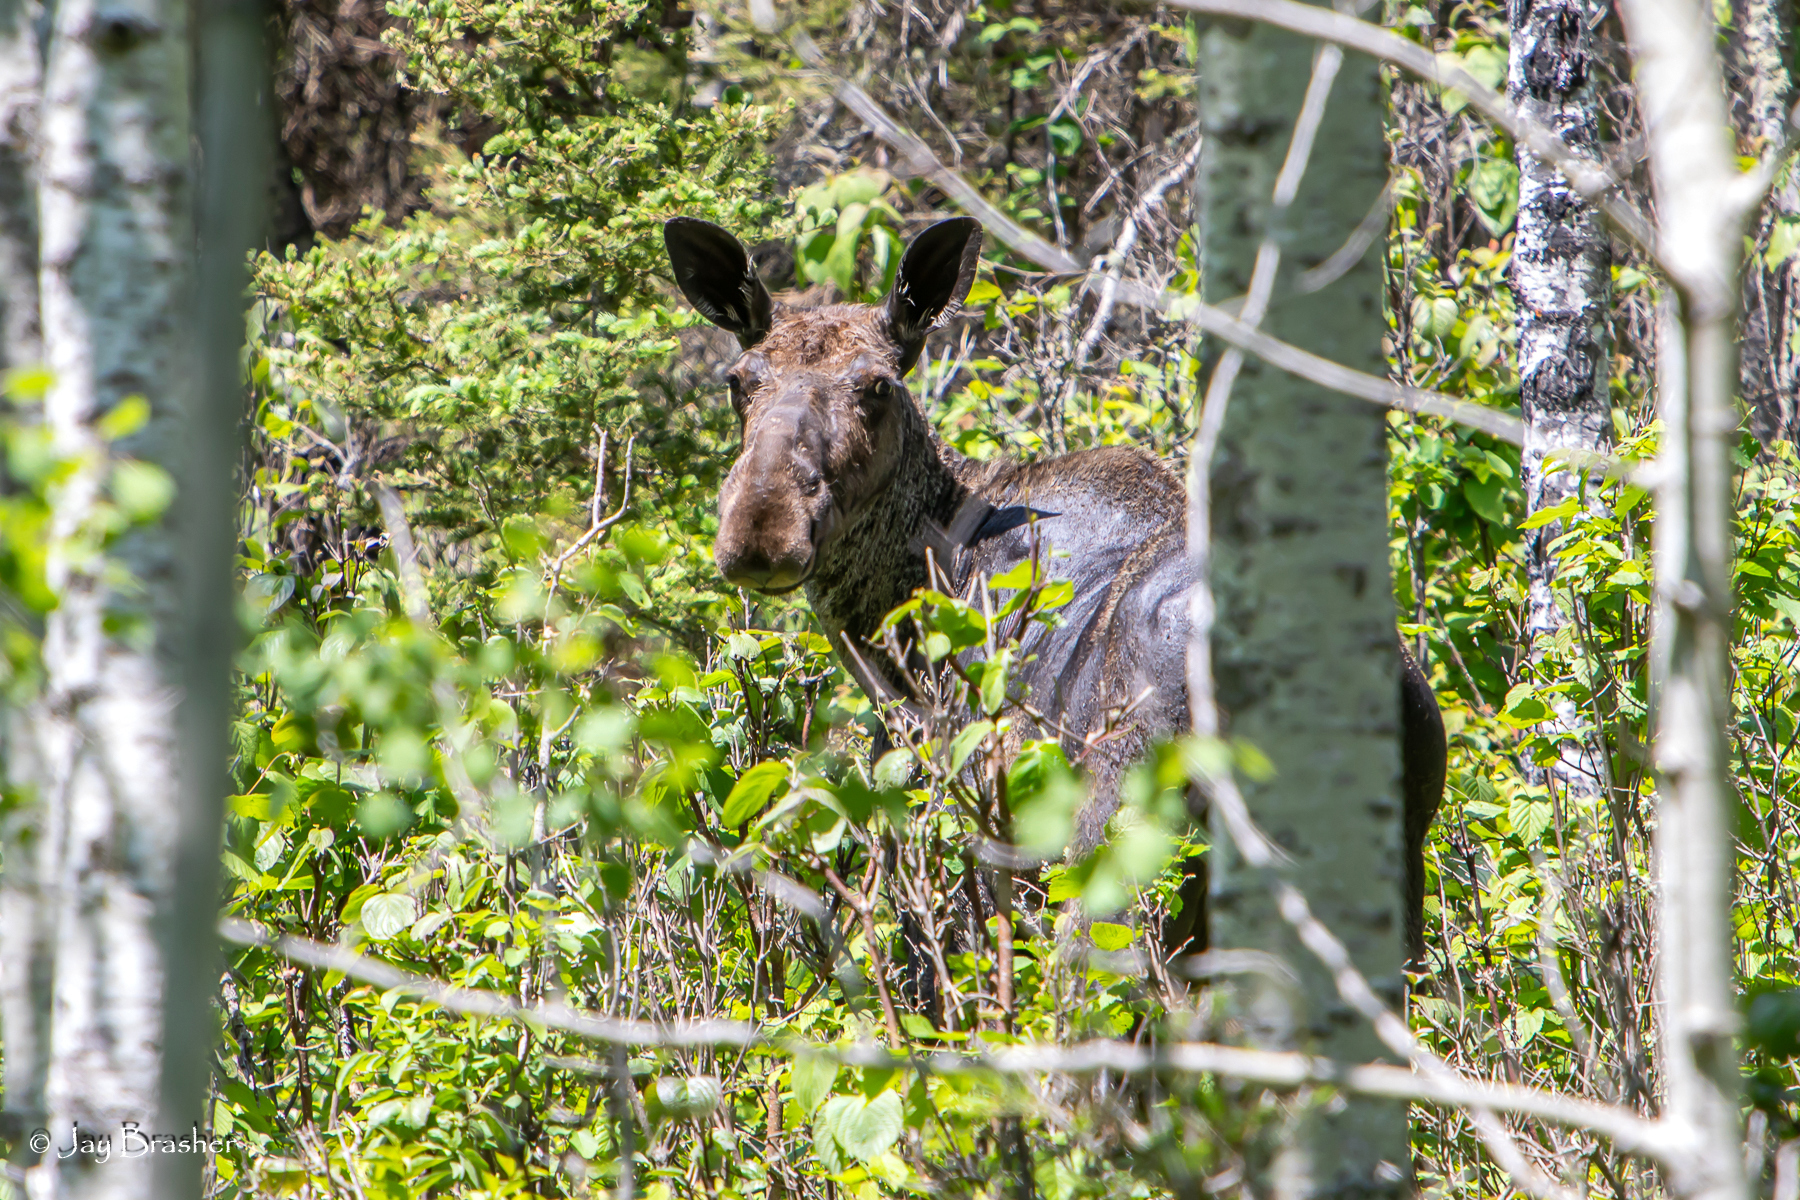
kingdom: Animalia
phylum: Chordata
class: Mammalia
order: Artiodactyla
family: Cervidae
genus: Alces
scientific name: Alces americanus
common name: Moose
